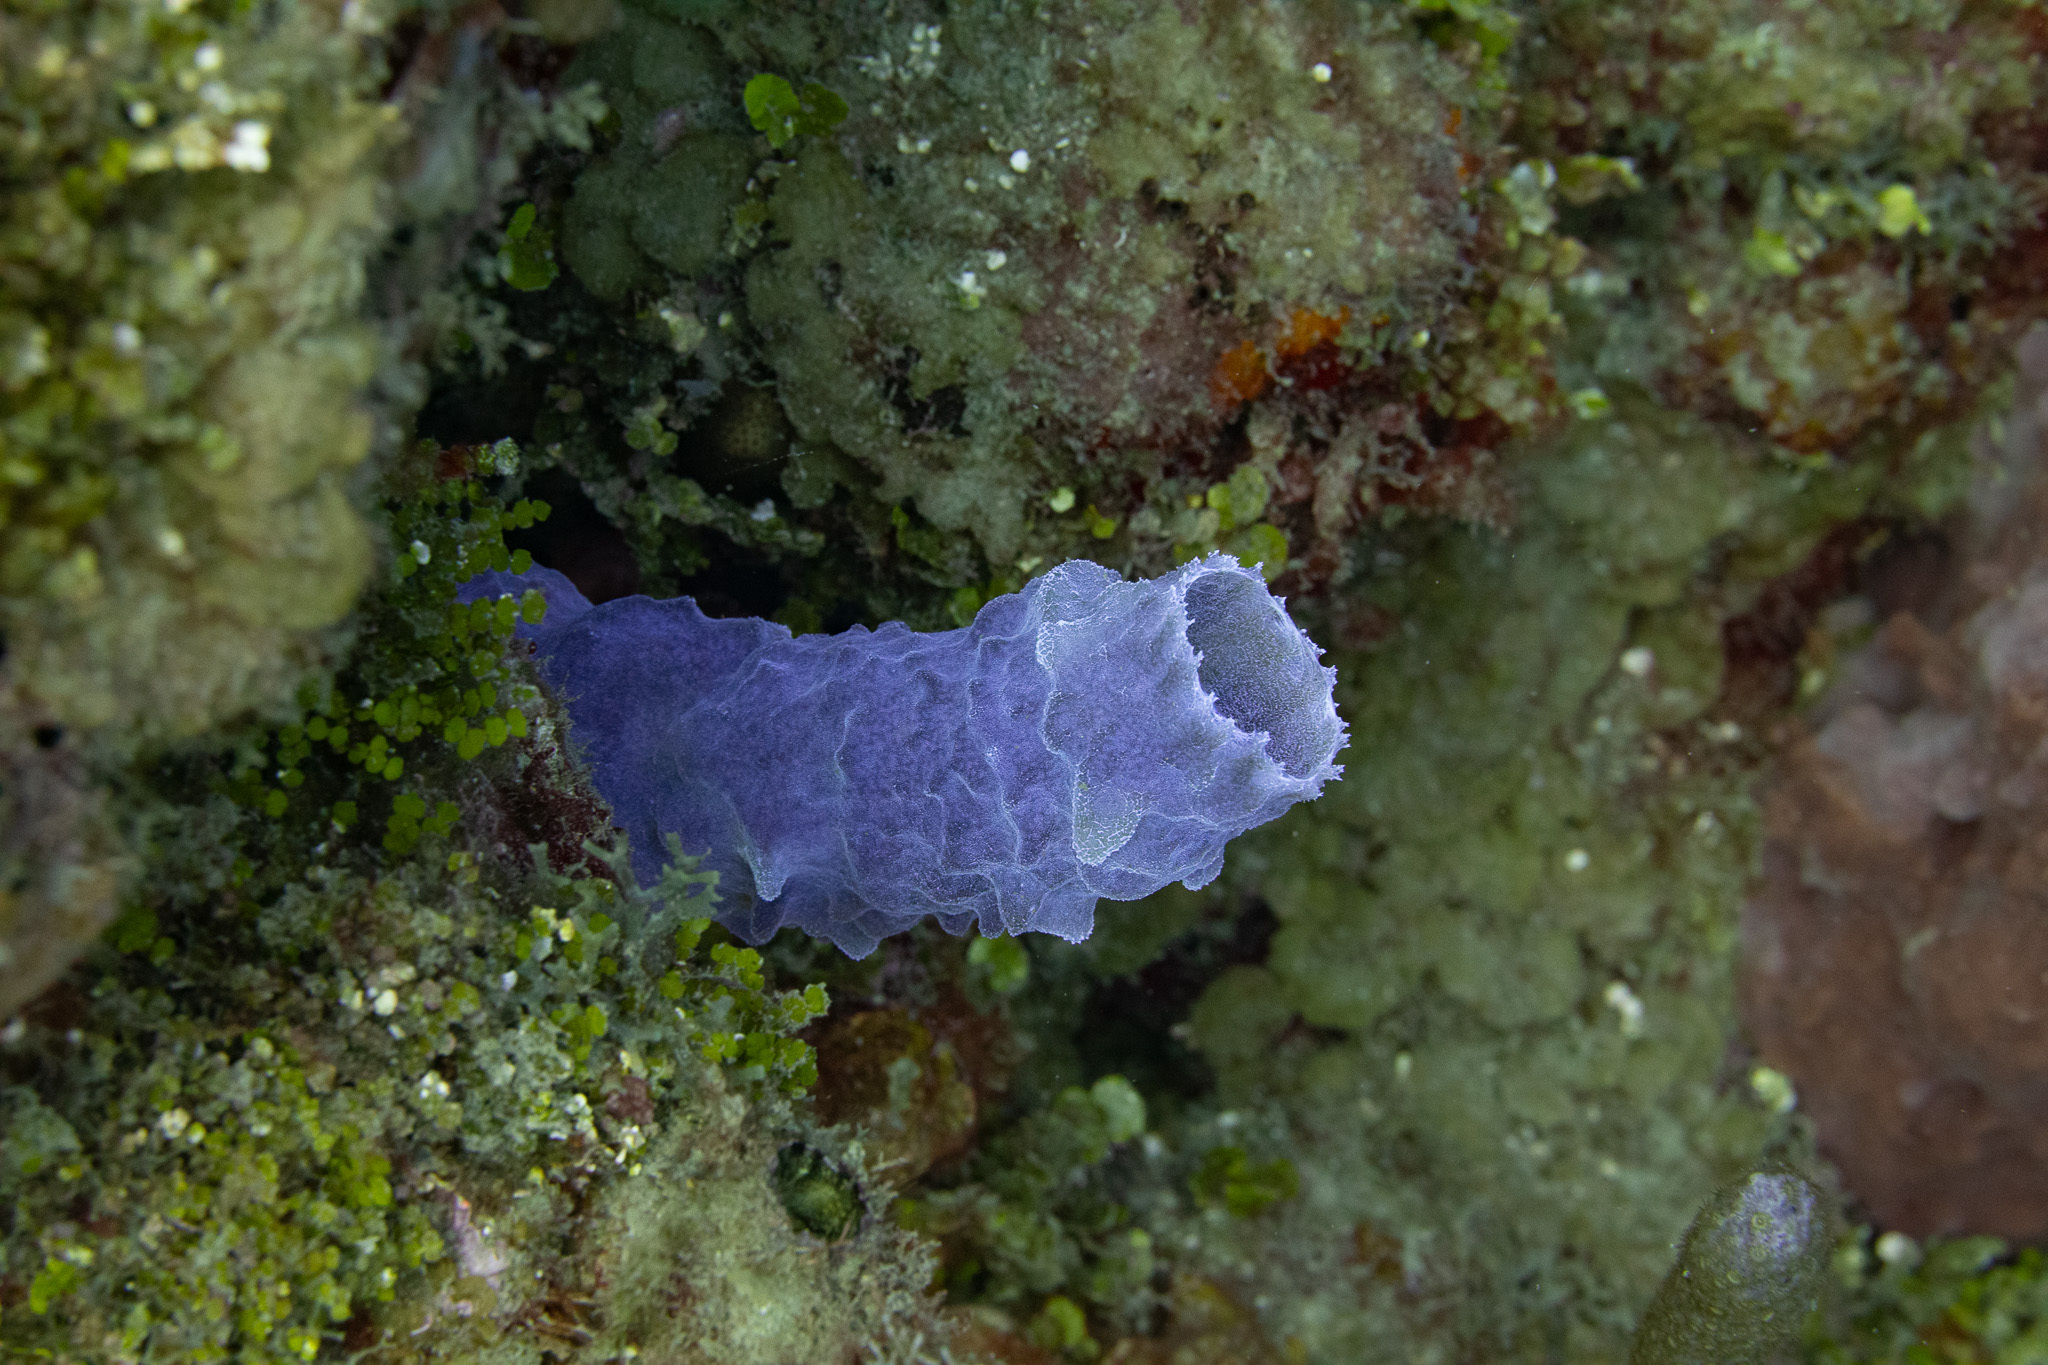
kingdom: Animalia
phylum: Porifera
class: Demospongiae
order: Haplosclerida
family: Callyspongiidae
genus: Callyspongia
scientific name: Callyspongia plicifera
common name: Azure vase sponge
